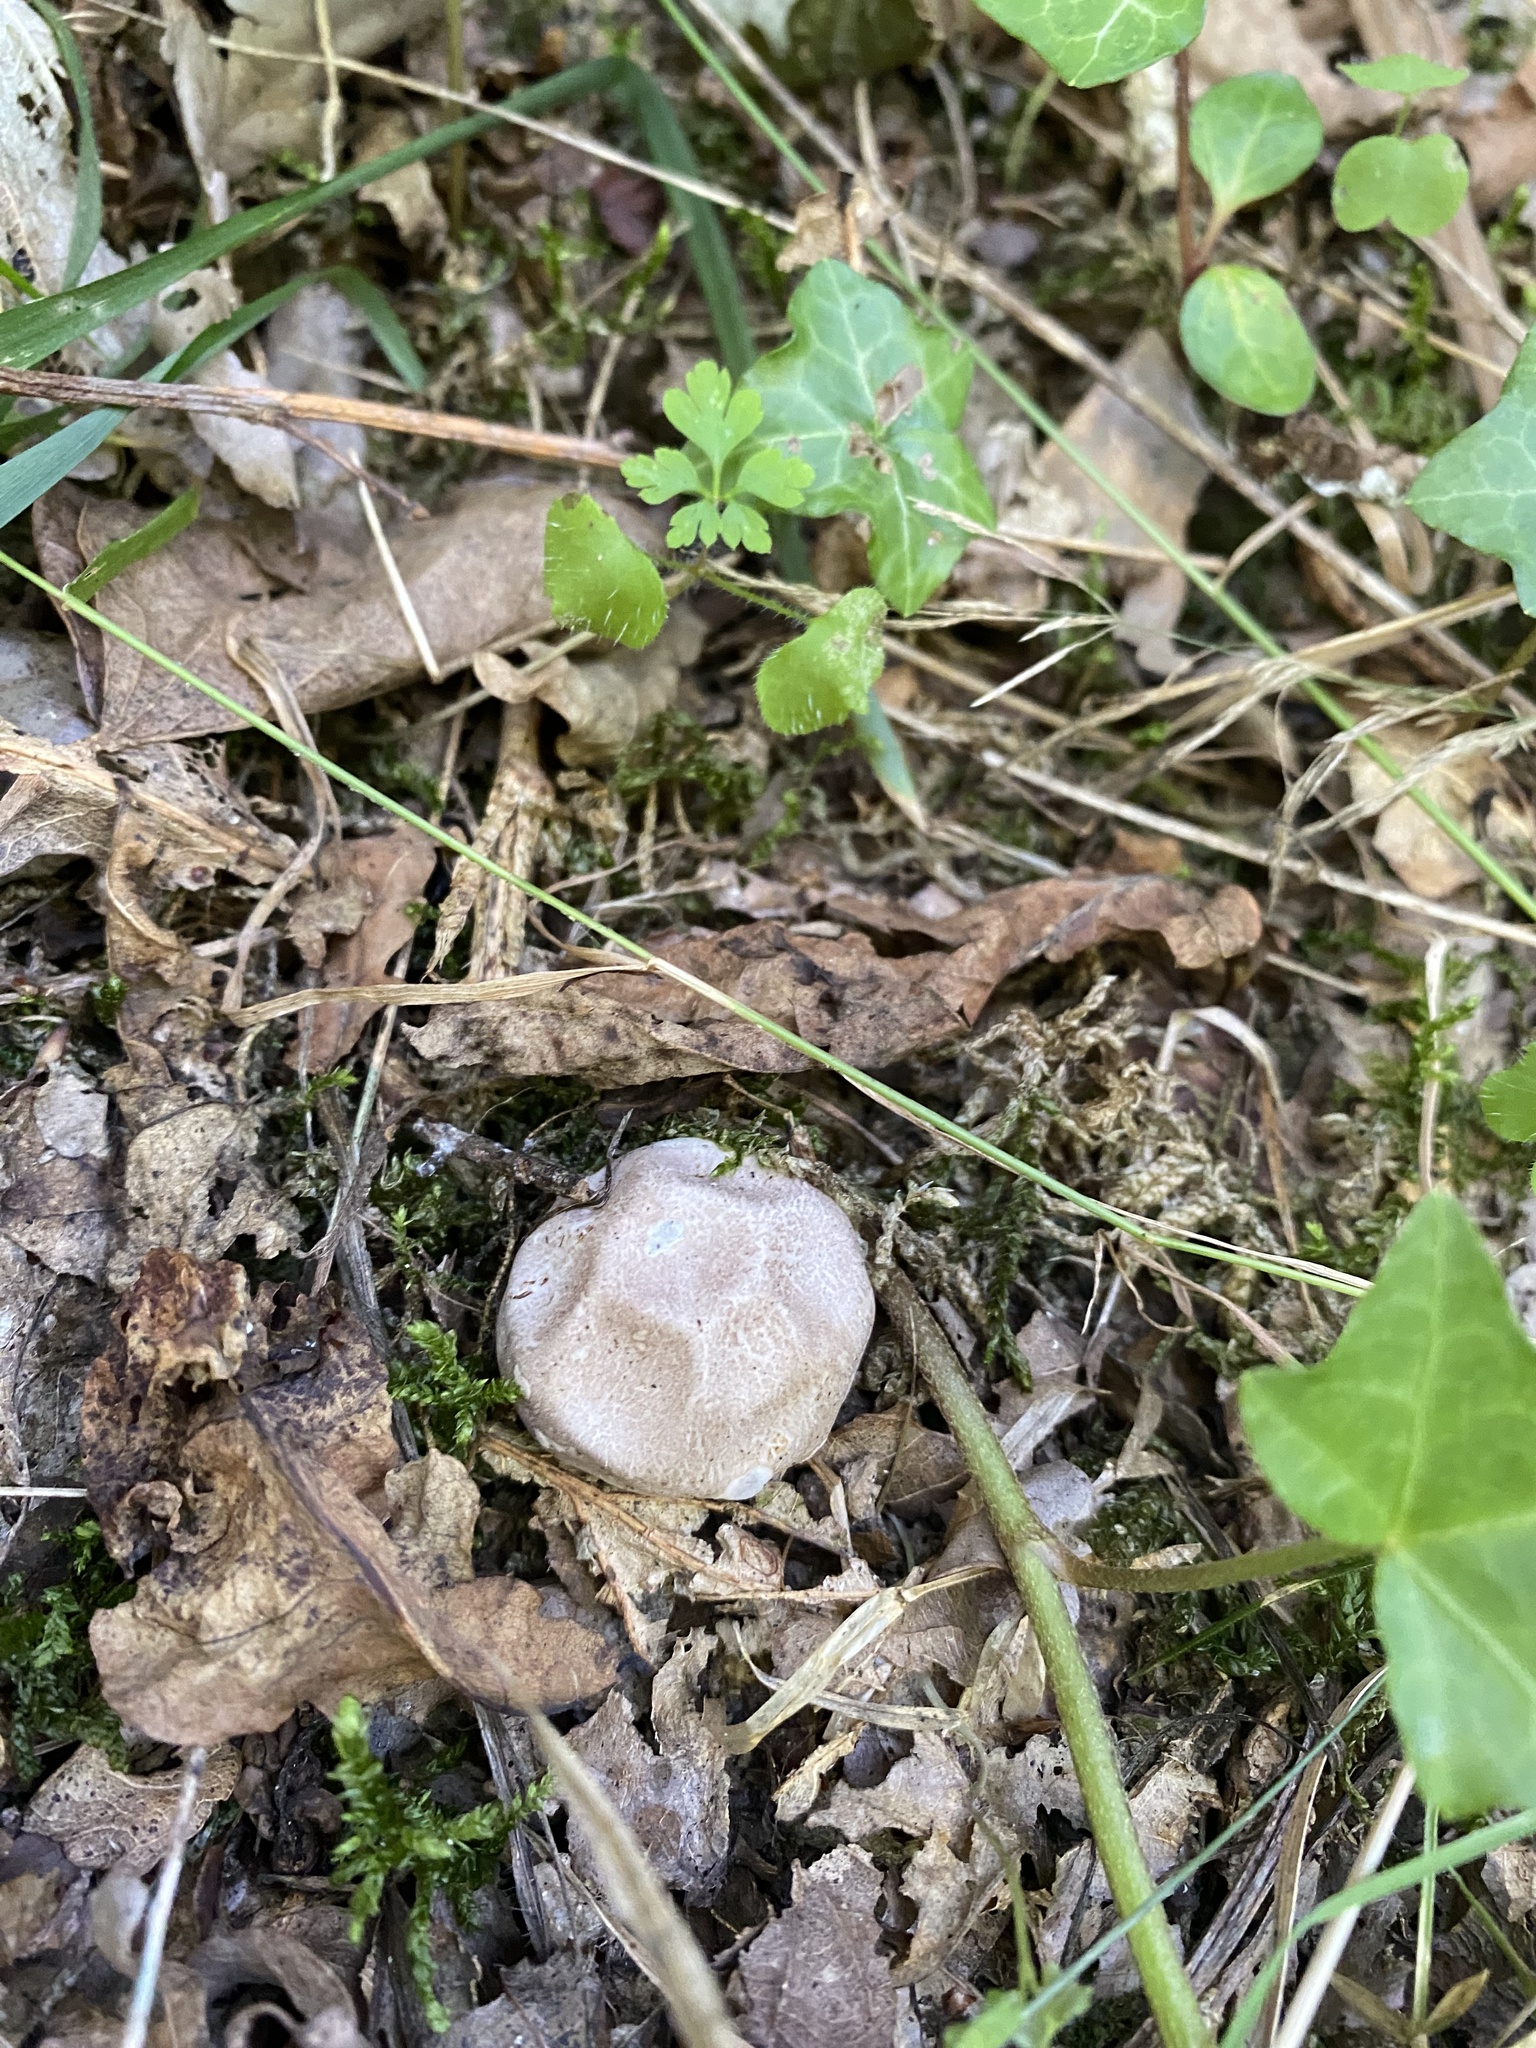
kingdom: Fungi
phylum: Basidiomycota
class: Agaricomycetes
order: Phallales
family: Phallaceae
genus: Clathrus
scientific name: Clathrus ruber
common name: Red cage
